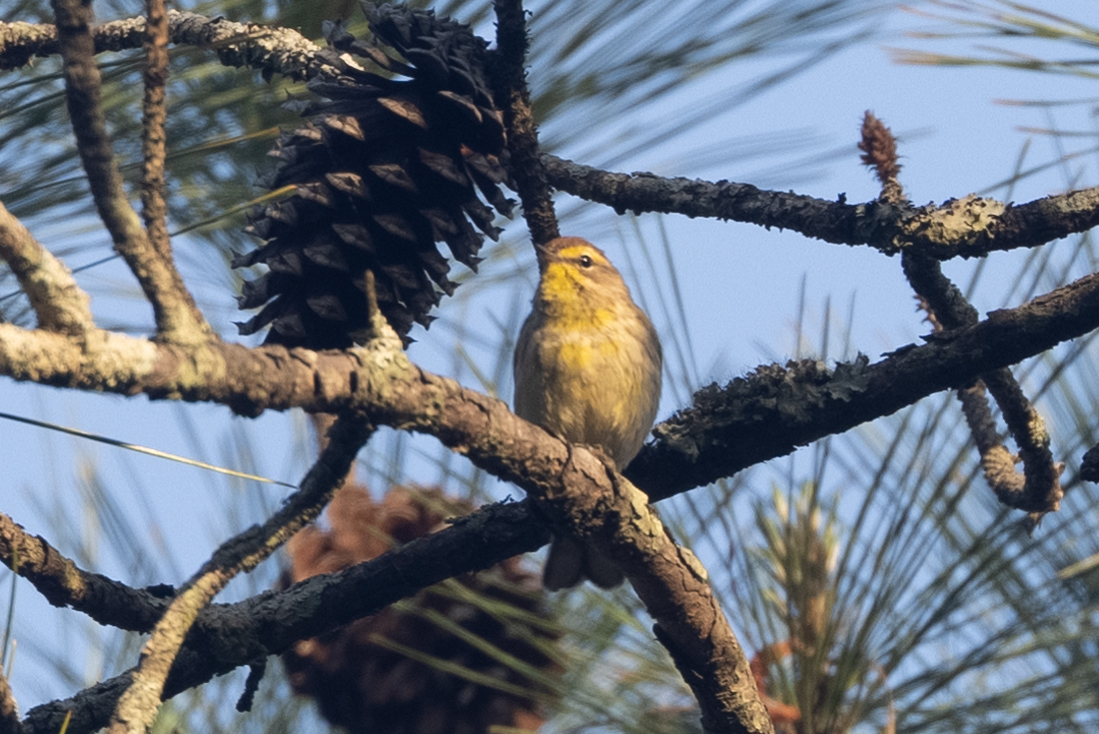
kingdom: Animalia
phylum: Chordata
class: Aves
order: Passeriformes
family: Parulidae
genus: Setophaga
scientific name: Setophaga palmarum
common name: Palm warbler
